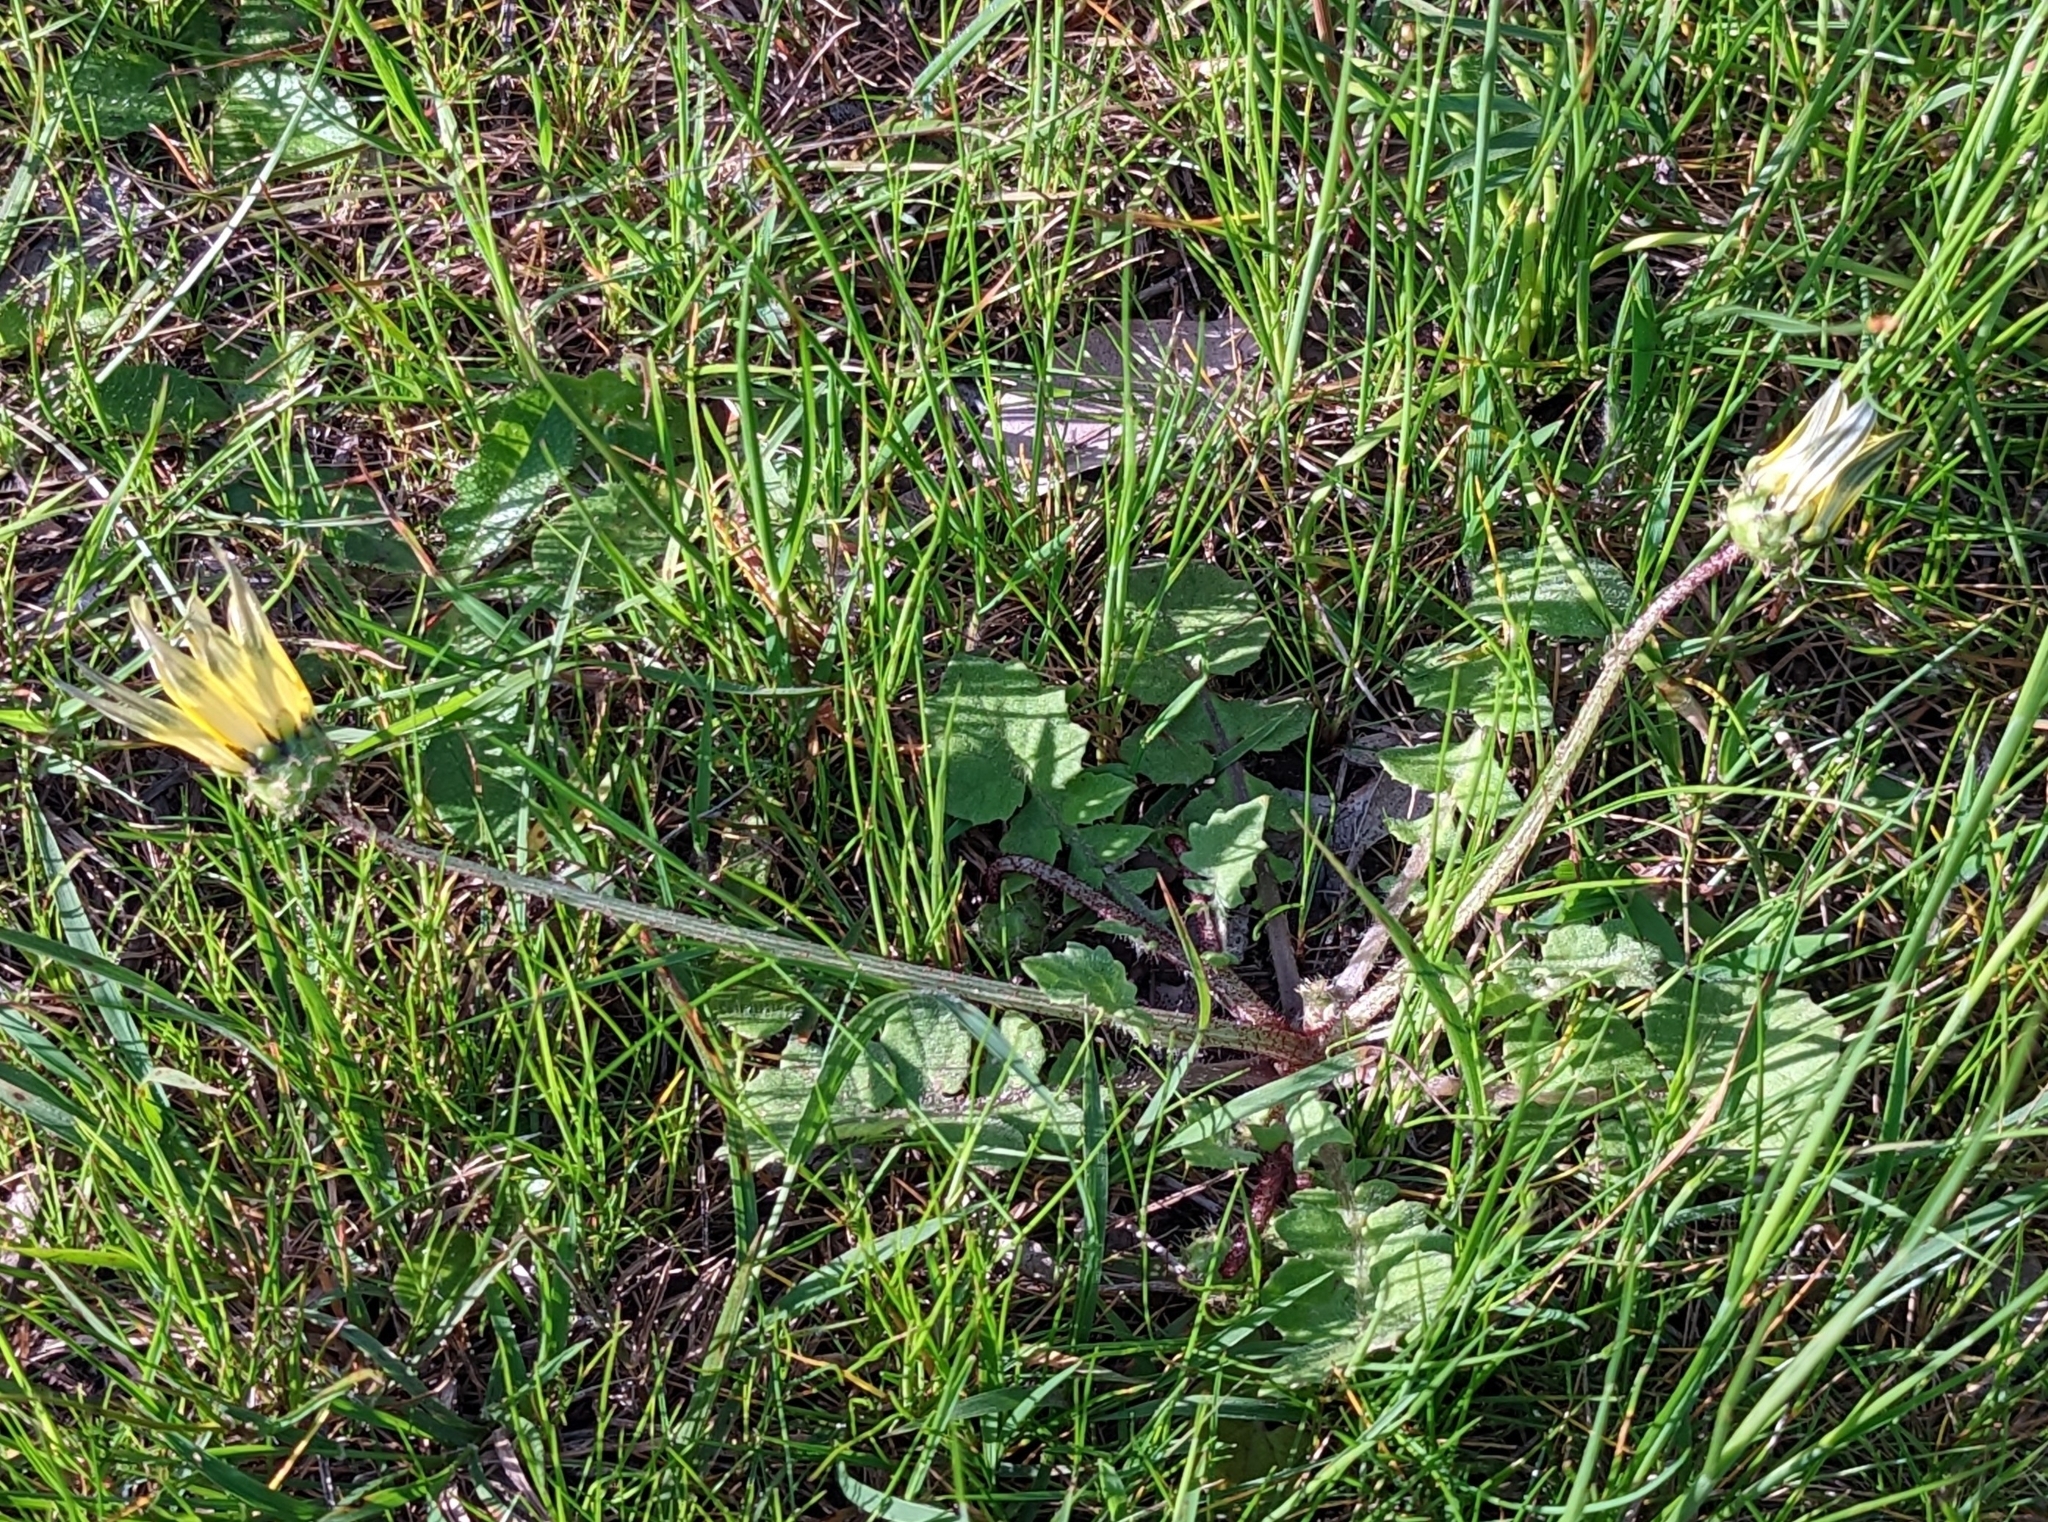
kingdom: Plantae
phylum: Tracheophyta
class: Magnoliopsida
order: Asterales
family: Asteraceae
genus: Arctotheca
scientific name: Arctotheca calendula
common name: Capeweed
